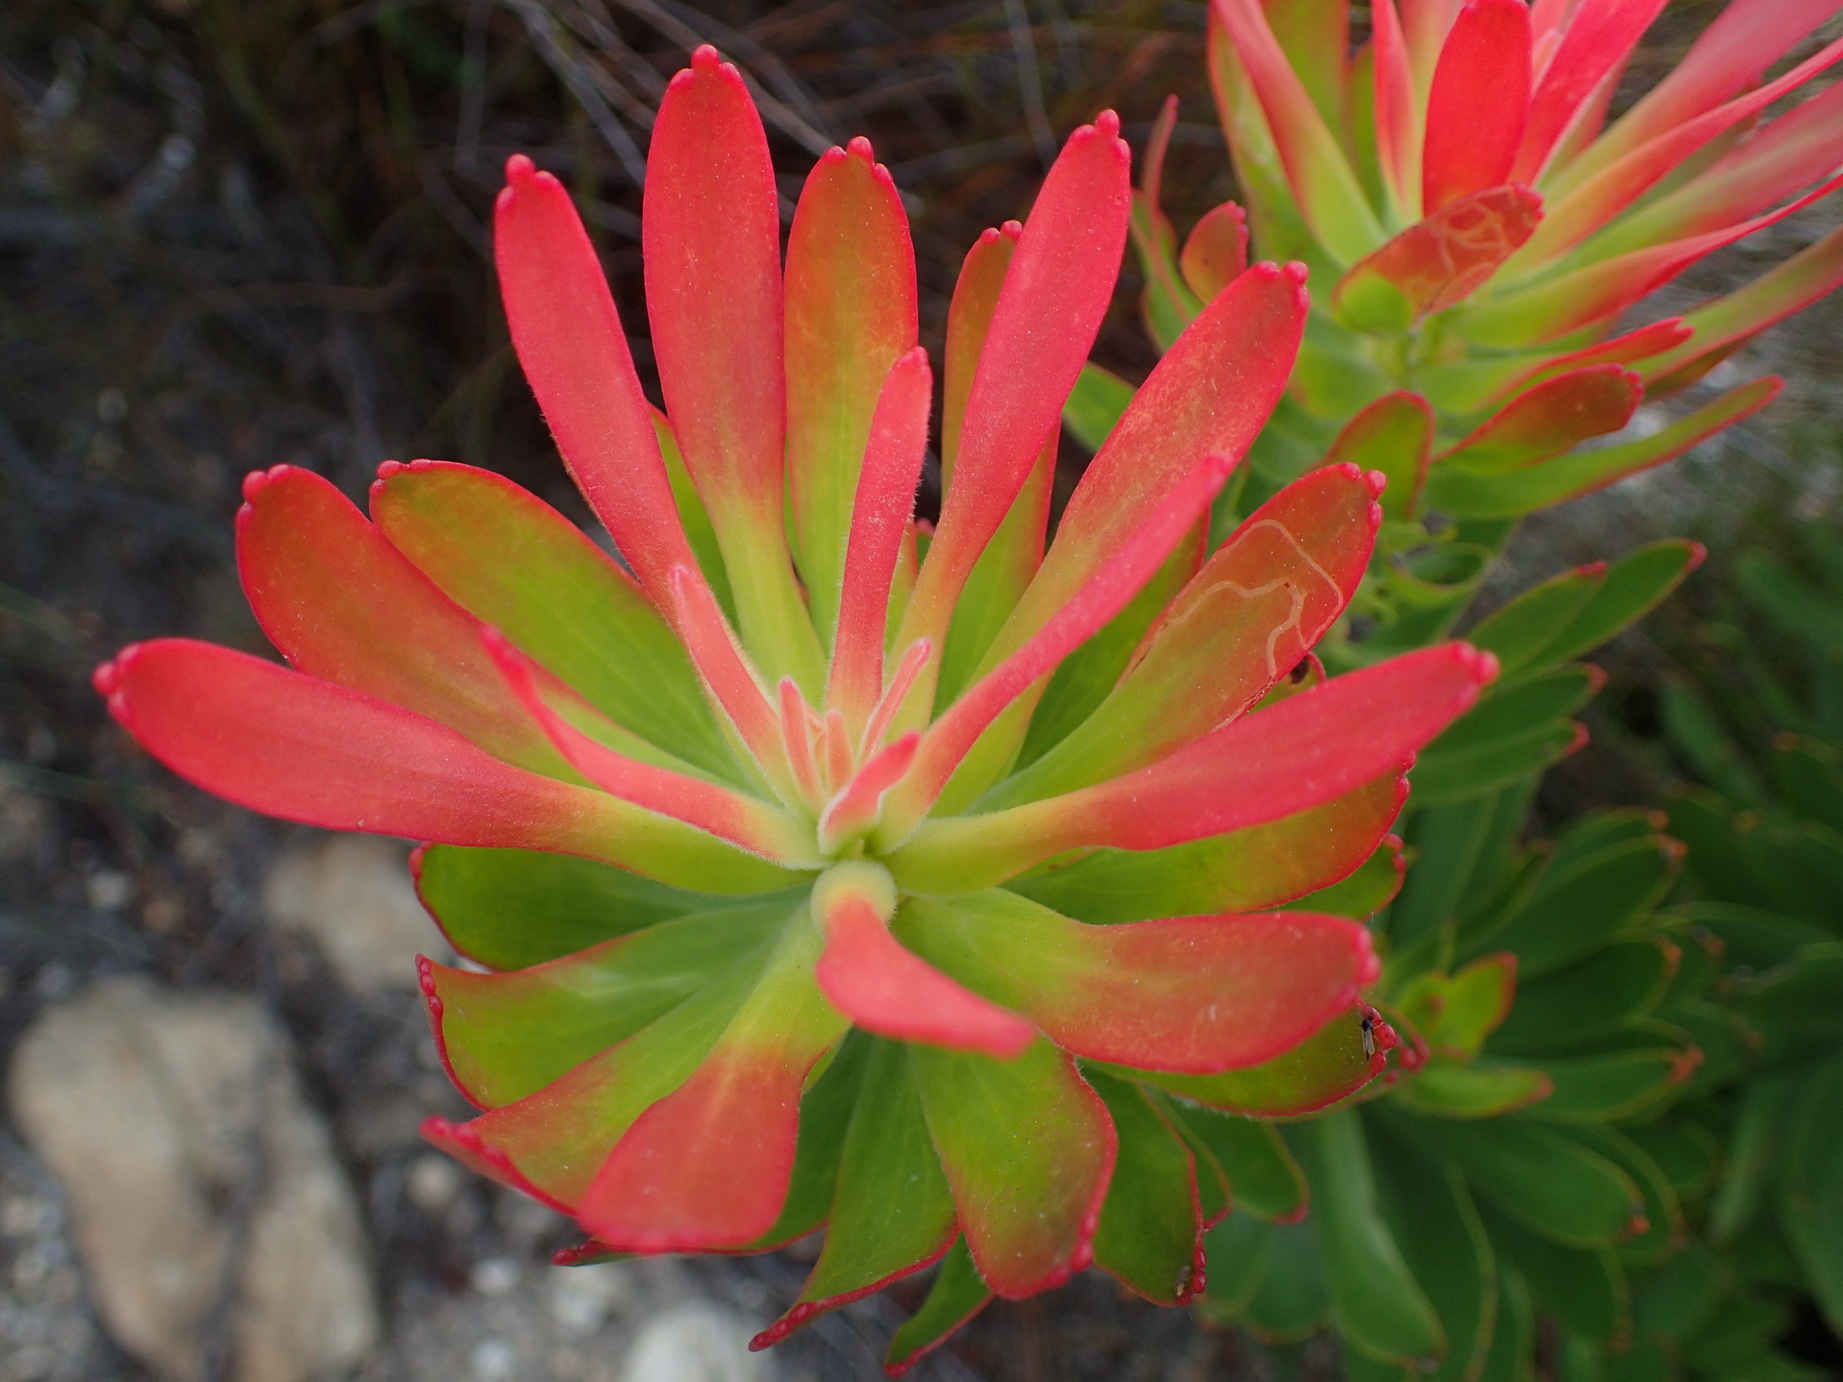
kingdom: Plantae
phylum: Tracheophyta
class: Magnoliopsida
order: Proteales
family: Proteaceae
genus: Mimetes
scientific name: Mimetes cucullatus
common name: Common pagoda
